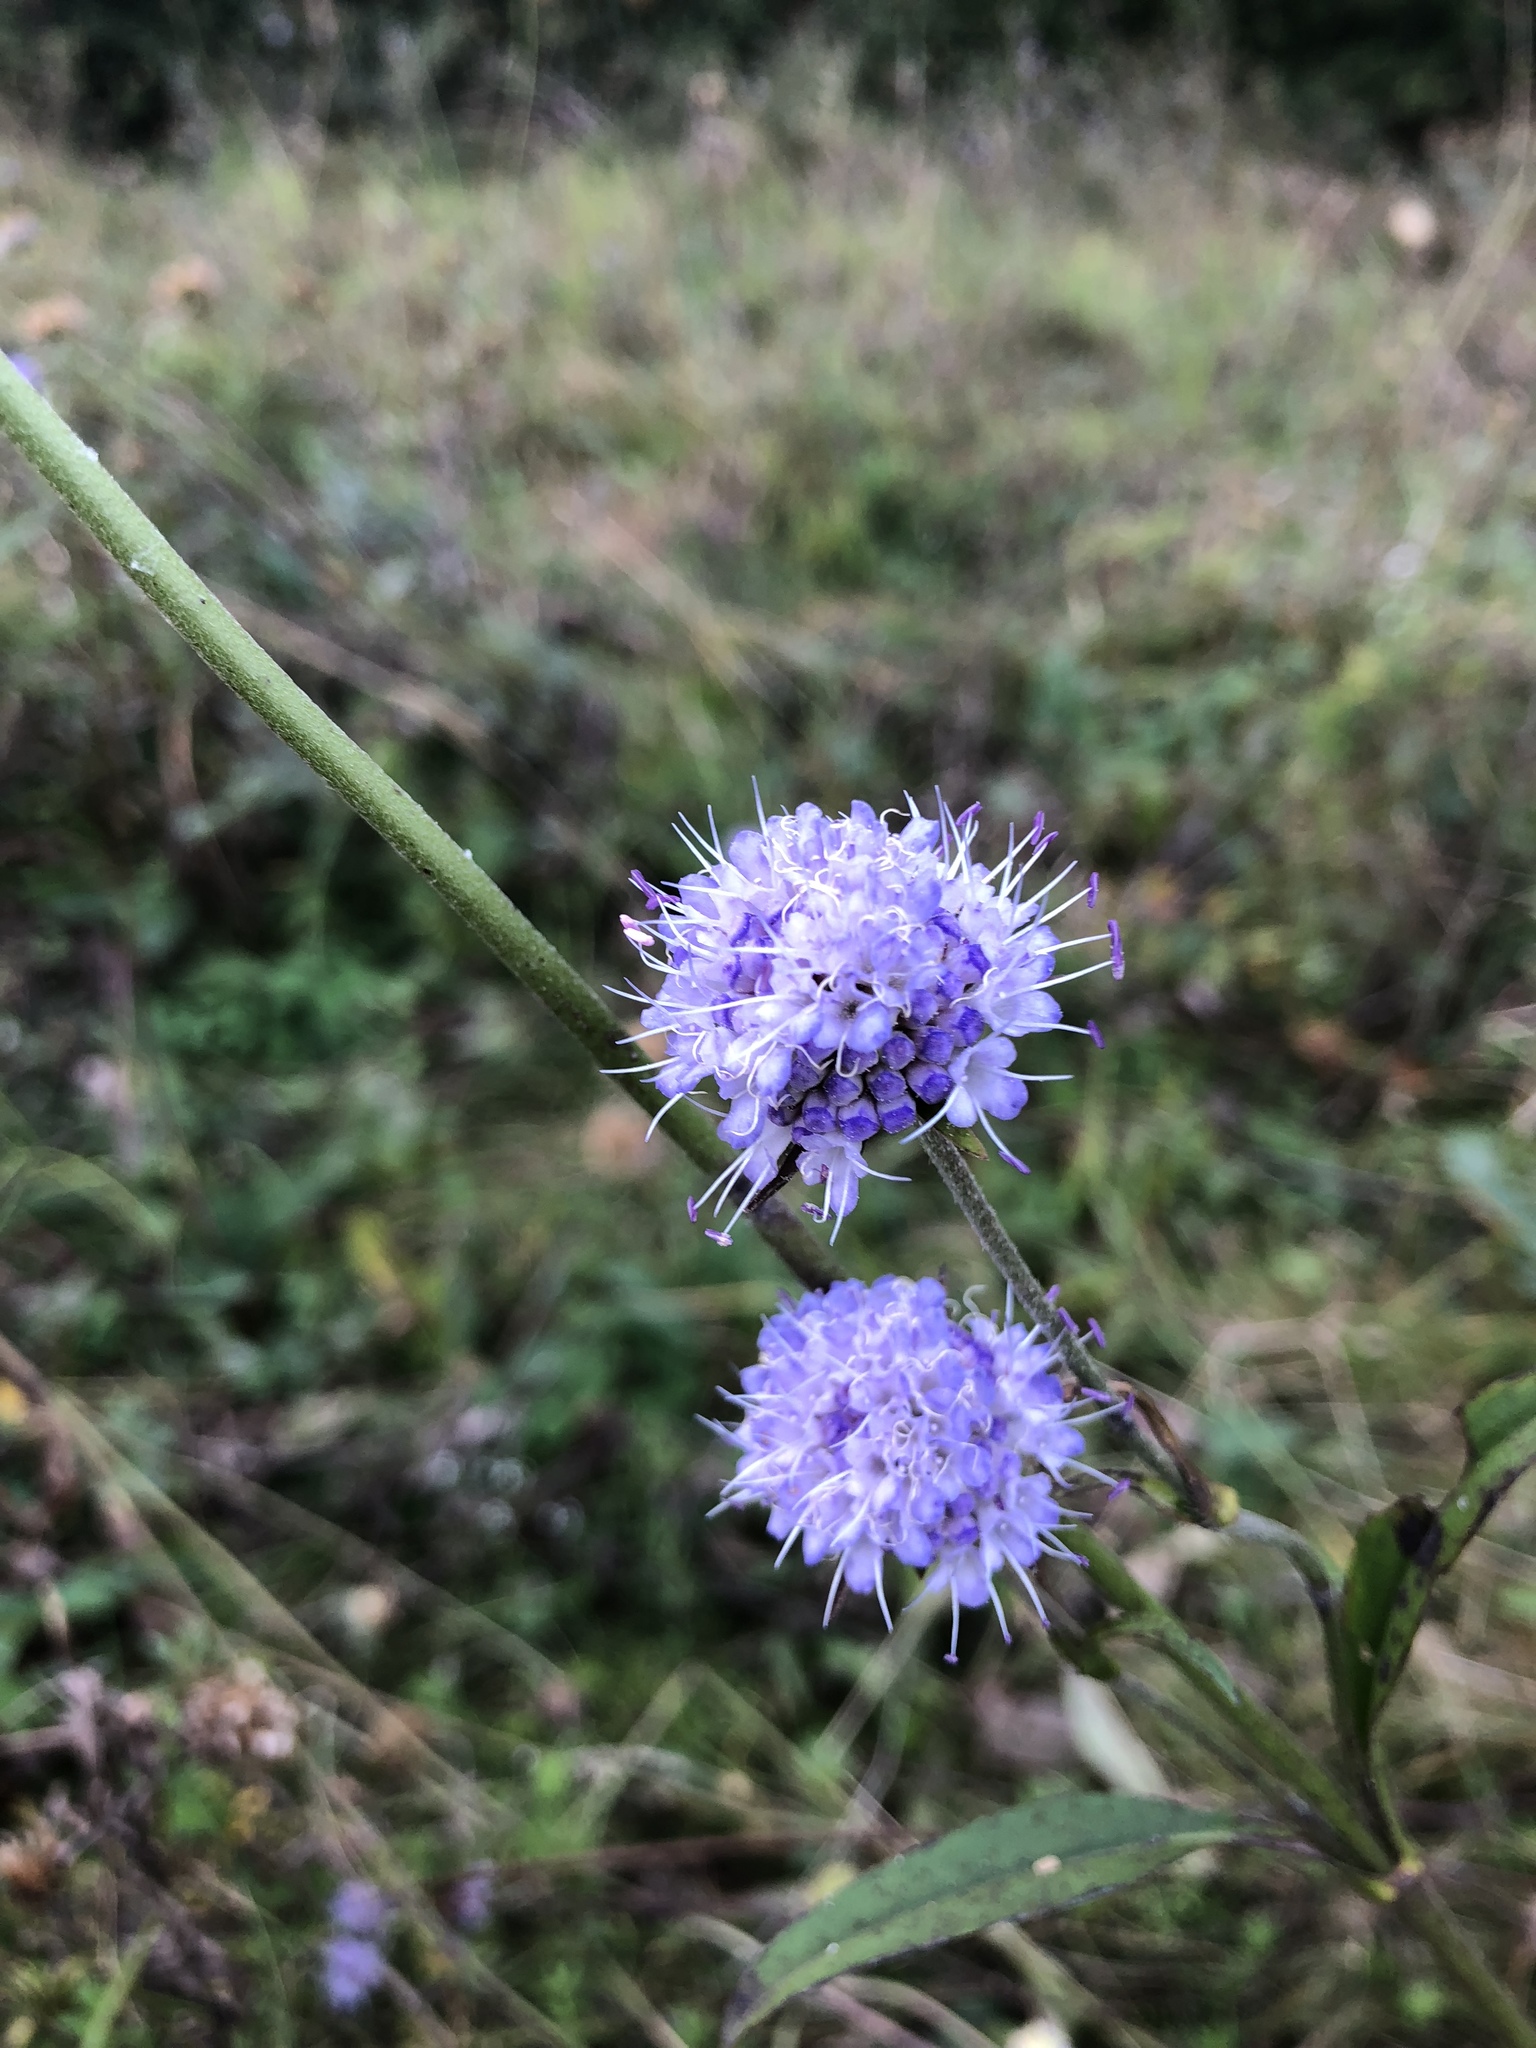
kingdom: Plantae
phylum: Tracheophyta
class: Magnoliopsida
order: Dipsacales
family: Caprifoliaceae
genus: Succisa
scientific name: Succisa pratensis
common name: Devil's-bit
